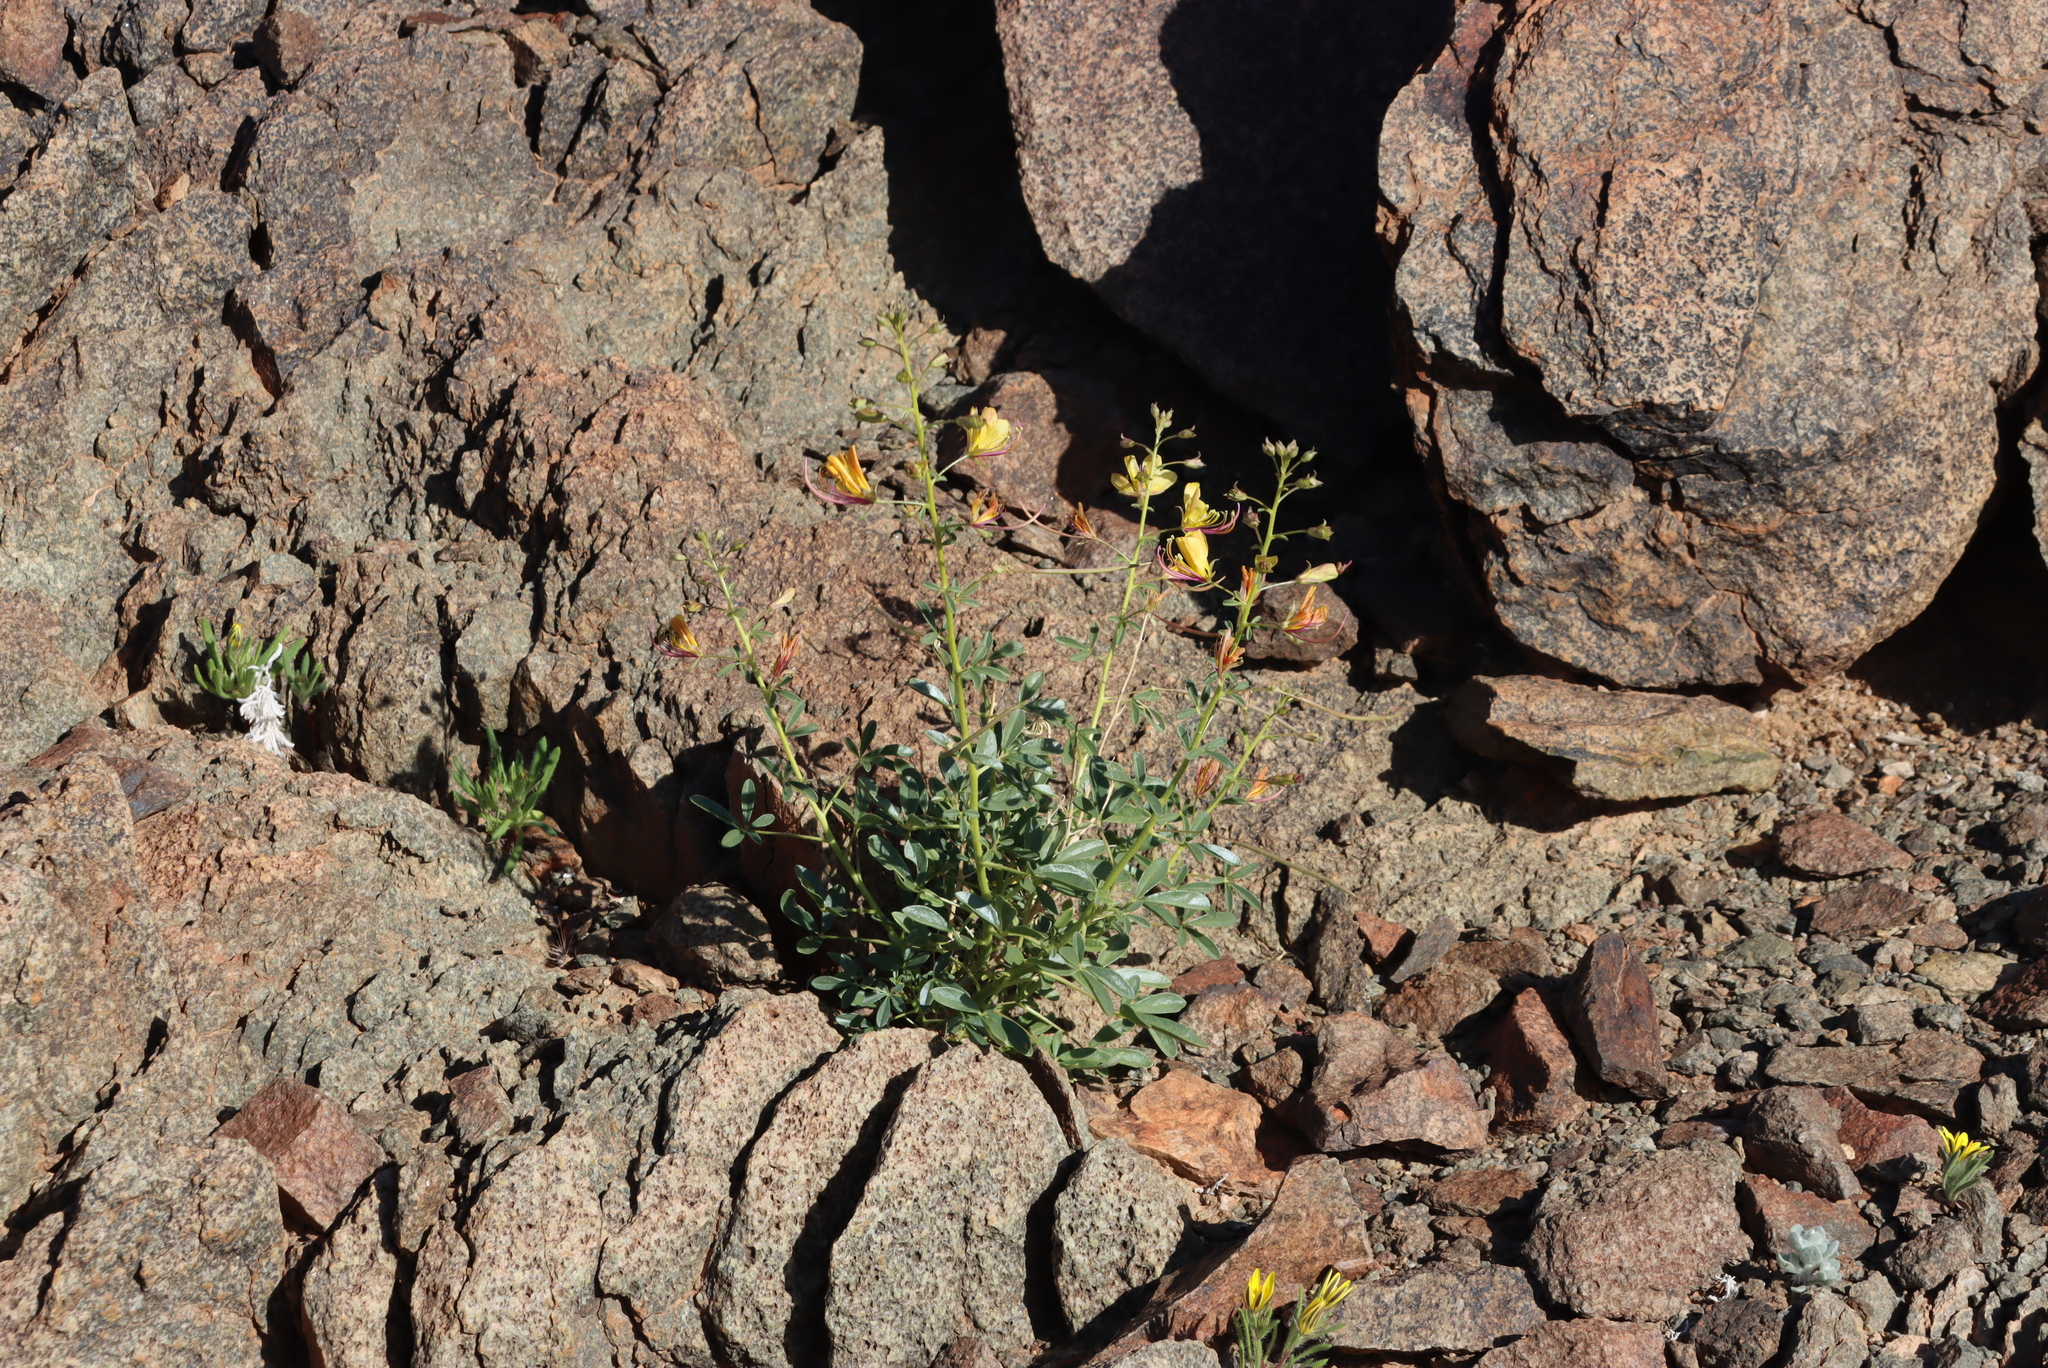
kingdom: Plantae
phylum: Tracheophyta
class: Magnoliopsida
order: Brassicales
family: Cleomaceae
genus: Cleome
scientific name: Cleome foliosa
